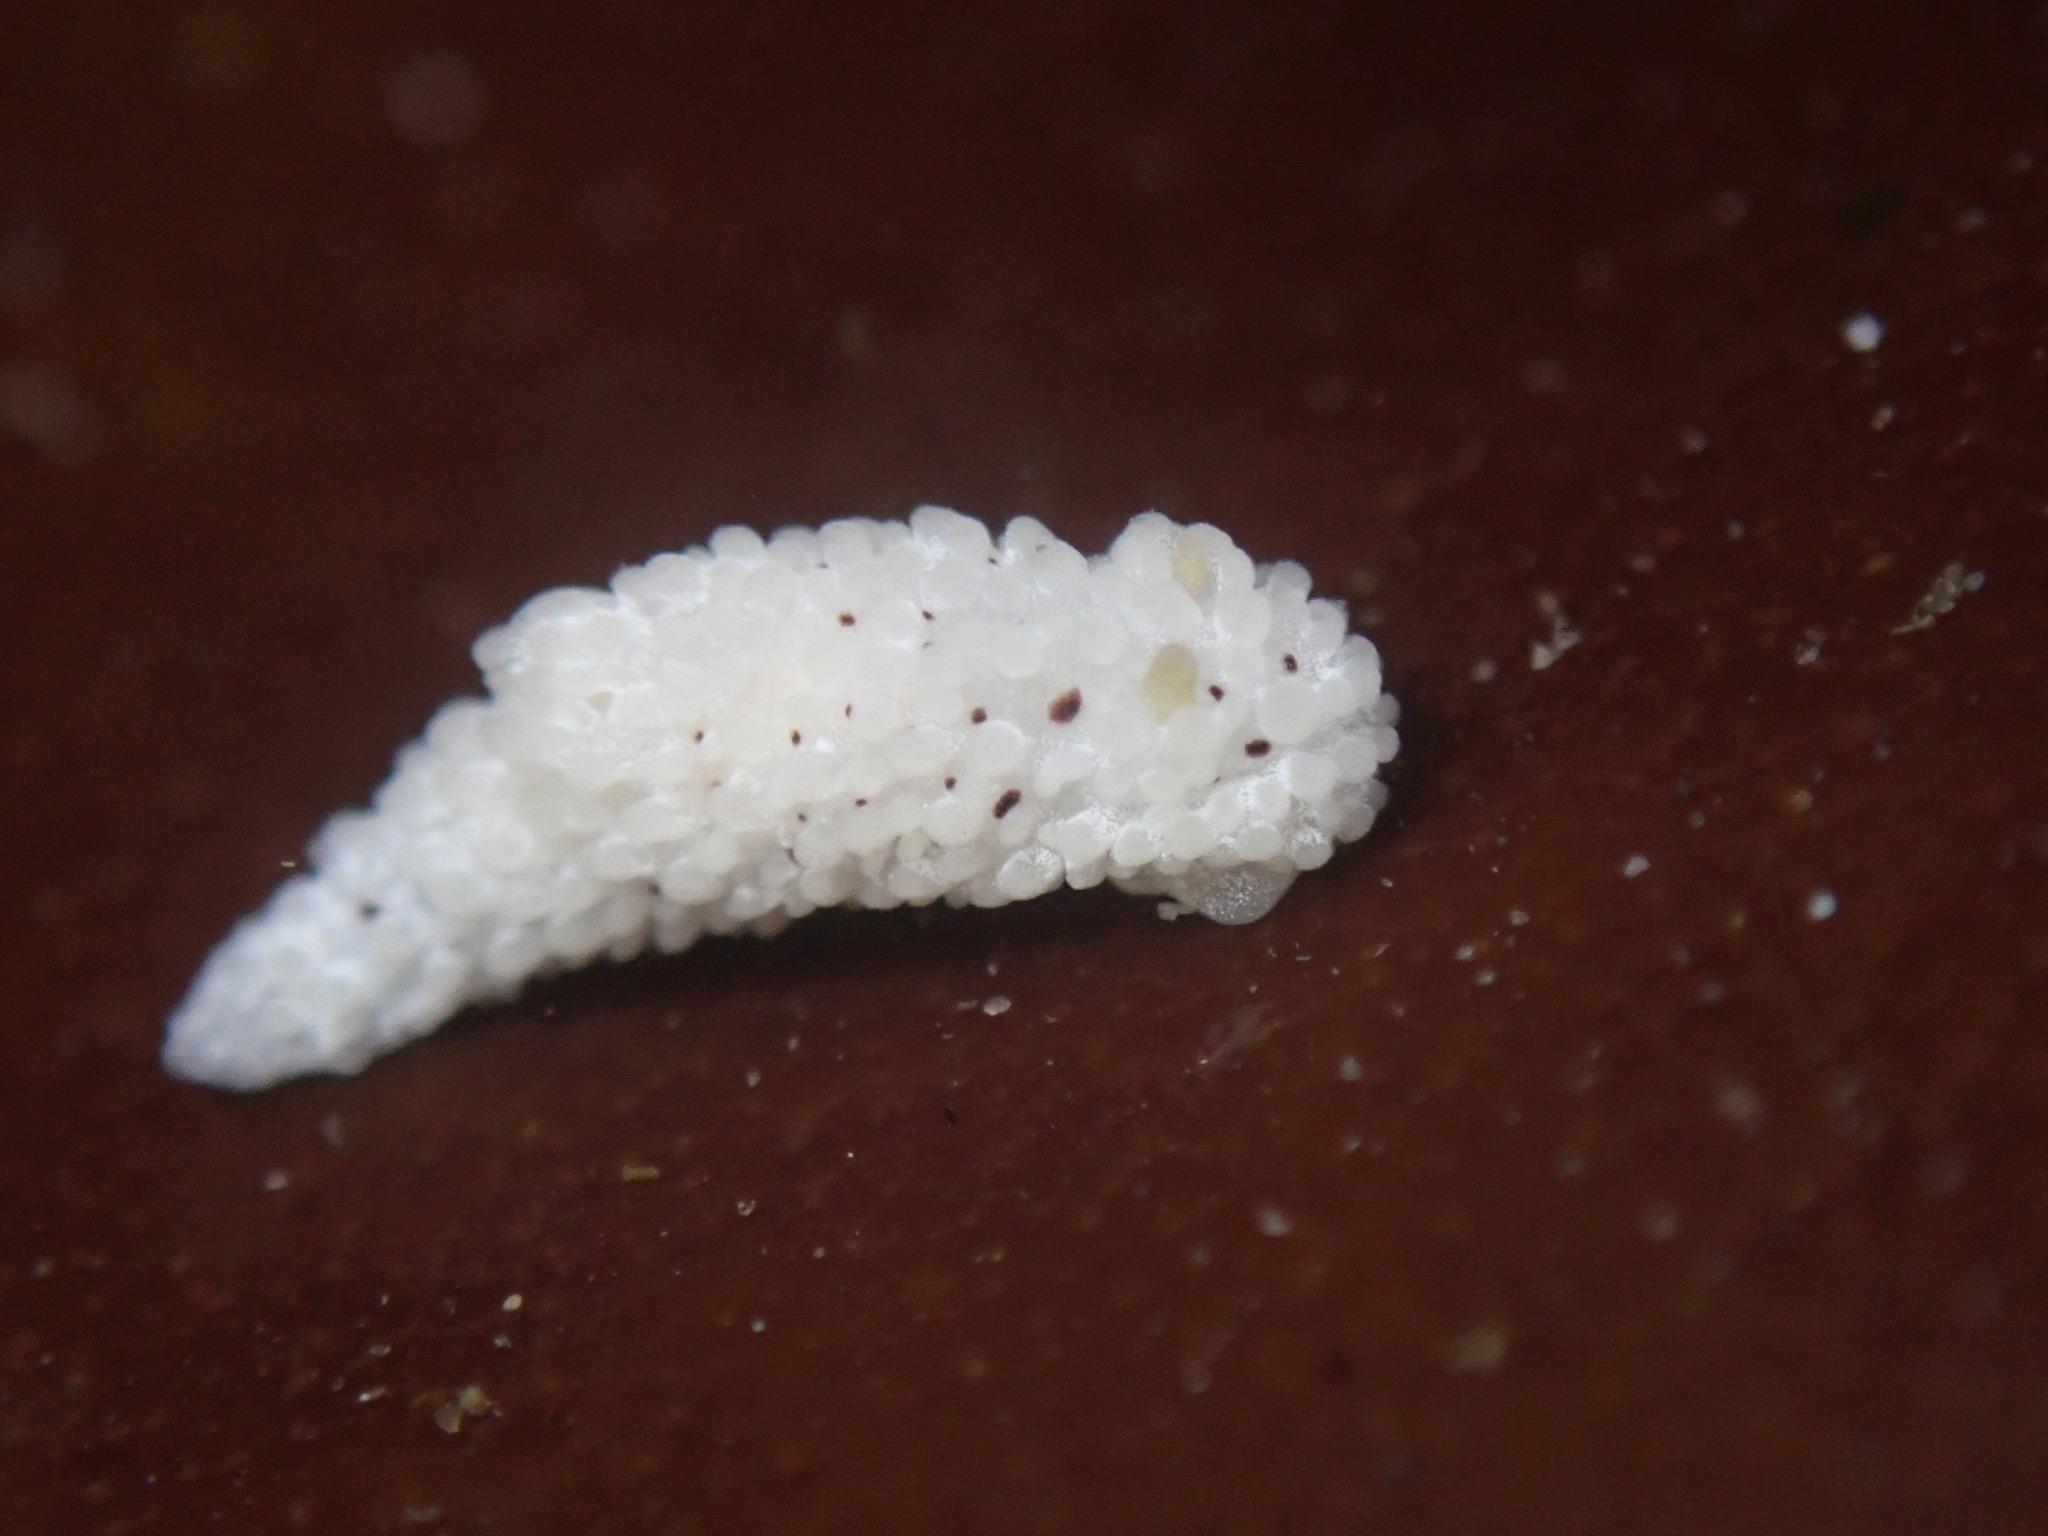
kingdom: Animalia
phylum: Mollusca
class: Gastropoda
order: Nudibranchia
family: Aegiridae
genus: Aegires
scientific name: Aegires albopunctatus
